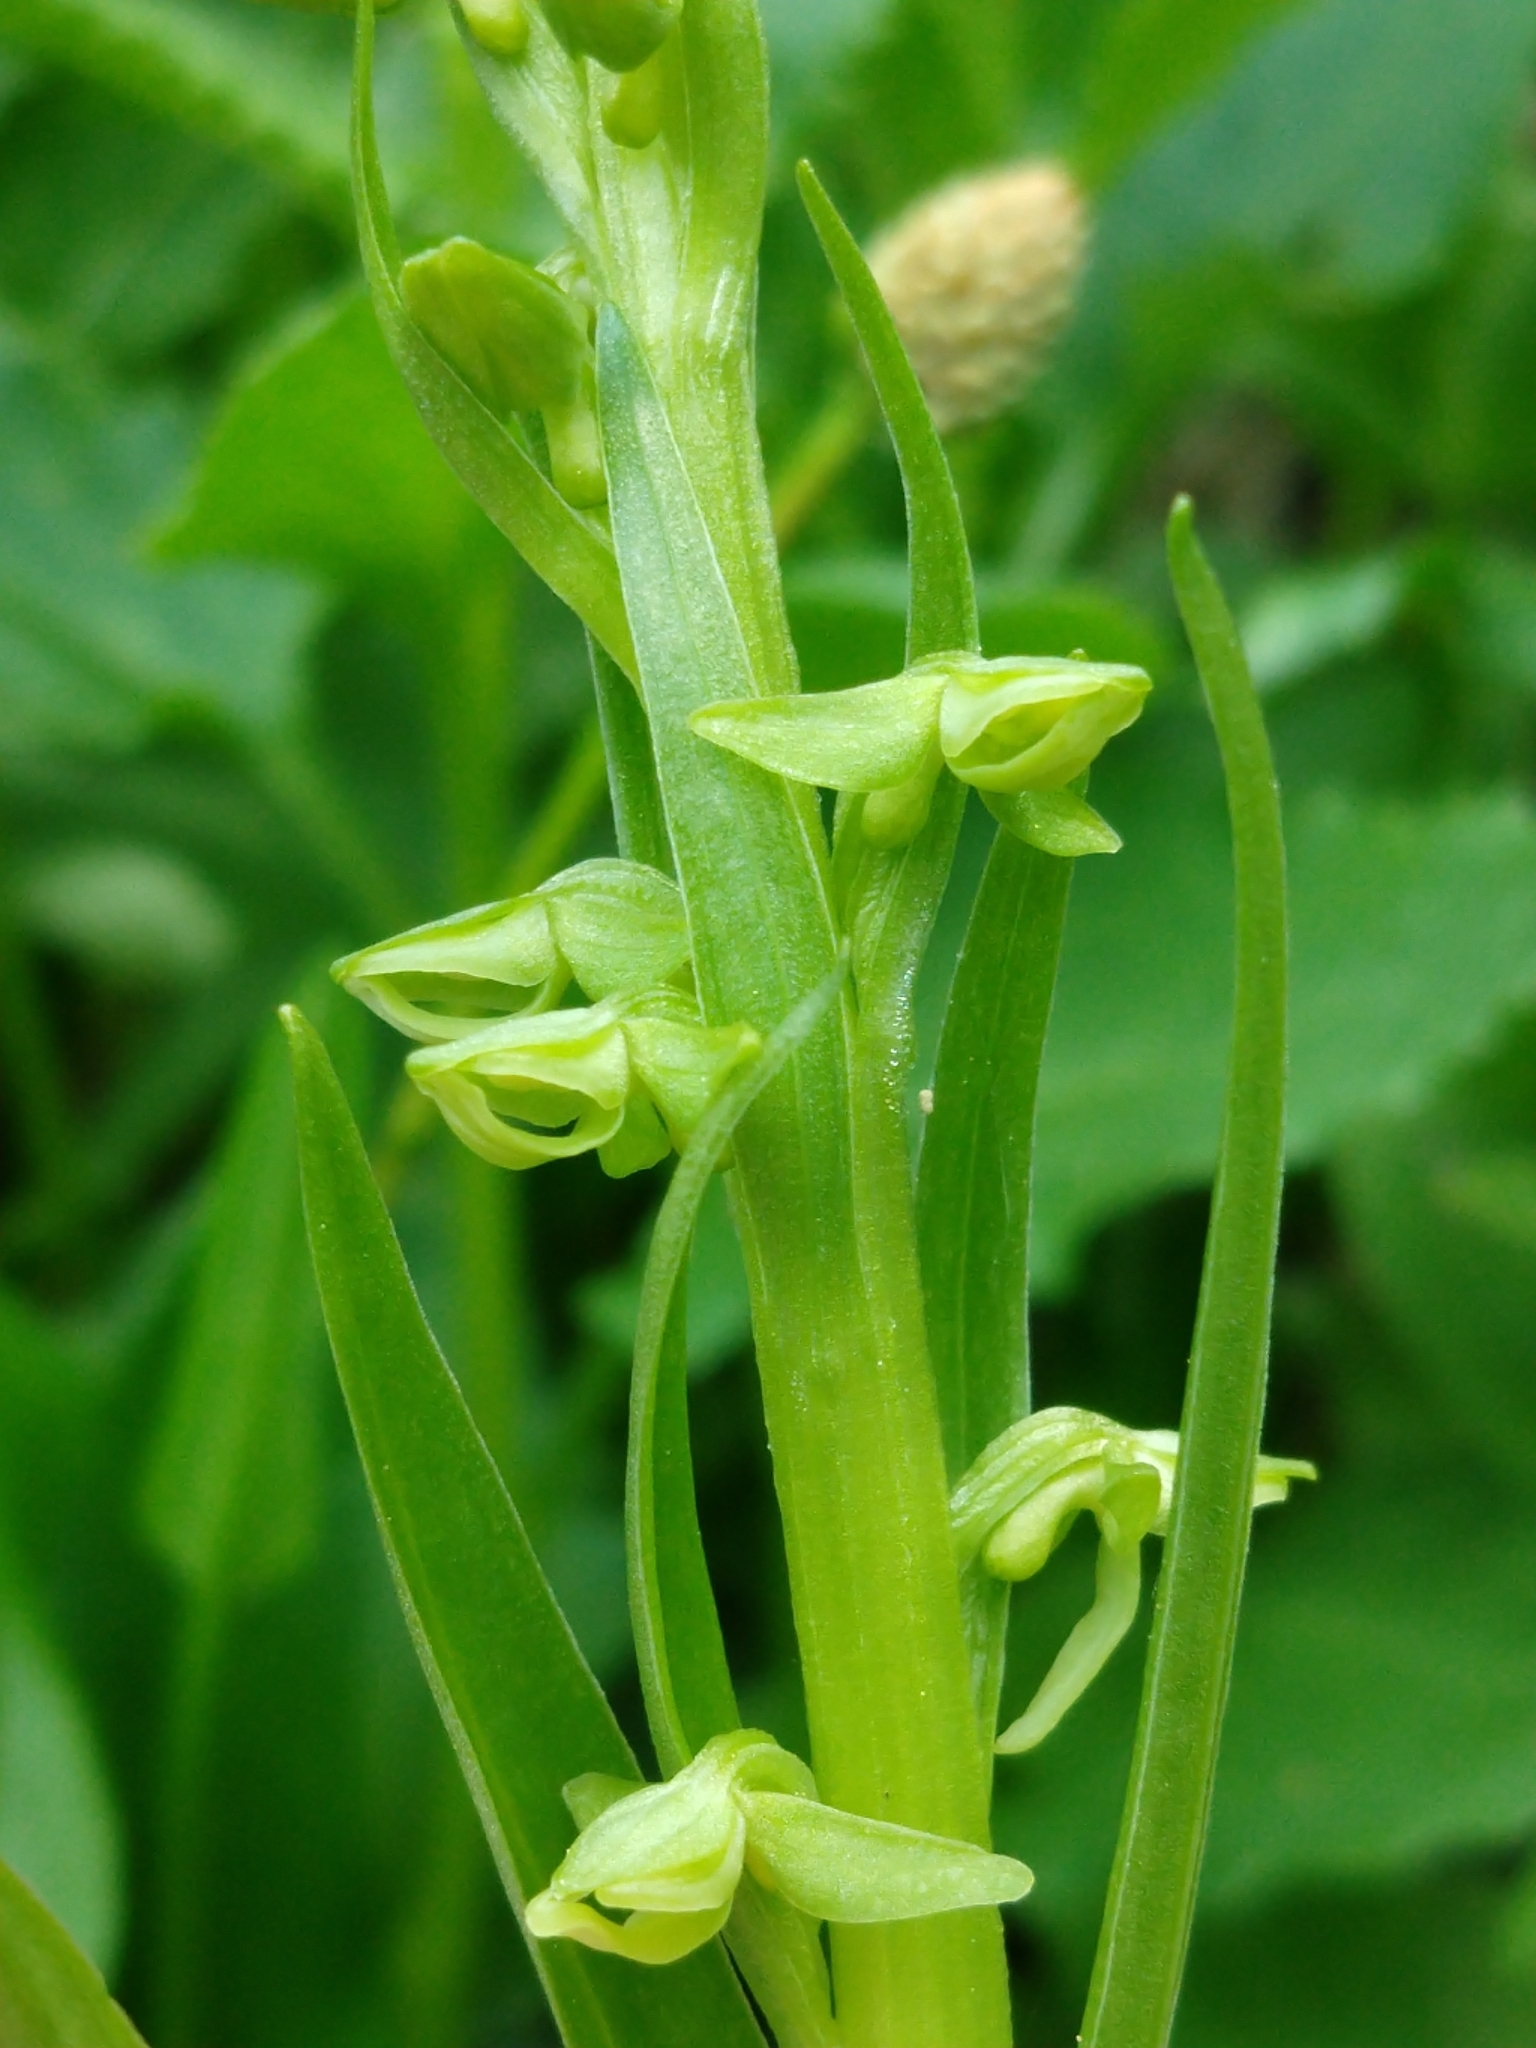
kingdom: Plantae
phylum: Tracheophyta
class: Liliopsida
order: Asparagales
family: Orchidaceae
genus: Platanthera
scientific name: Platanthera stricta
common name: Slender bog orchid
